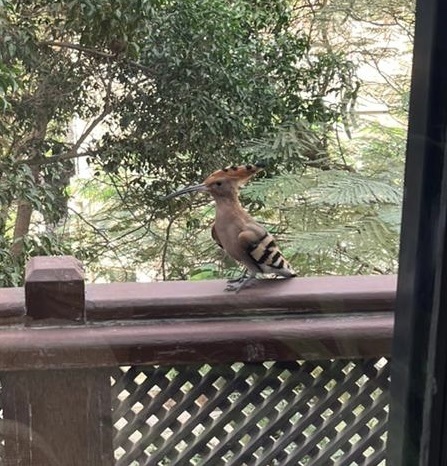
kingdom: Animalia
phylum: Chordata
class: Aves
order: Bucerotiformes
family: Upupidae
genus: Upupa
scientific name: Upupa epops
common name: Eurasian hoopoe
